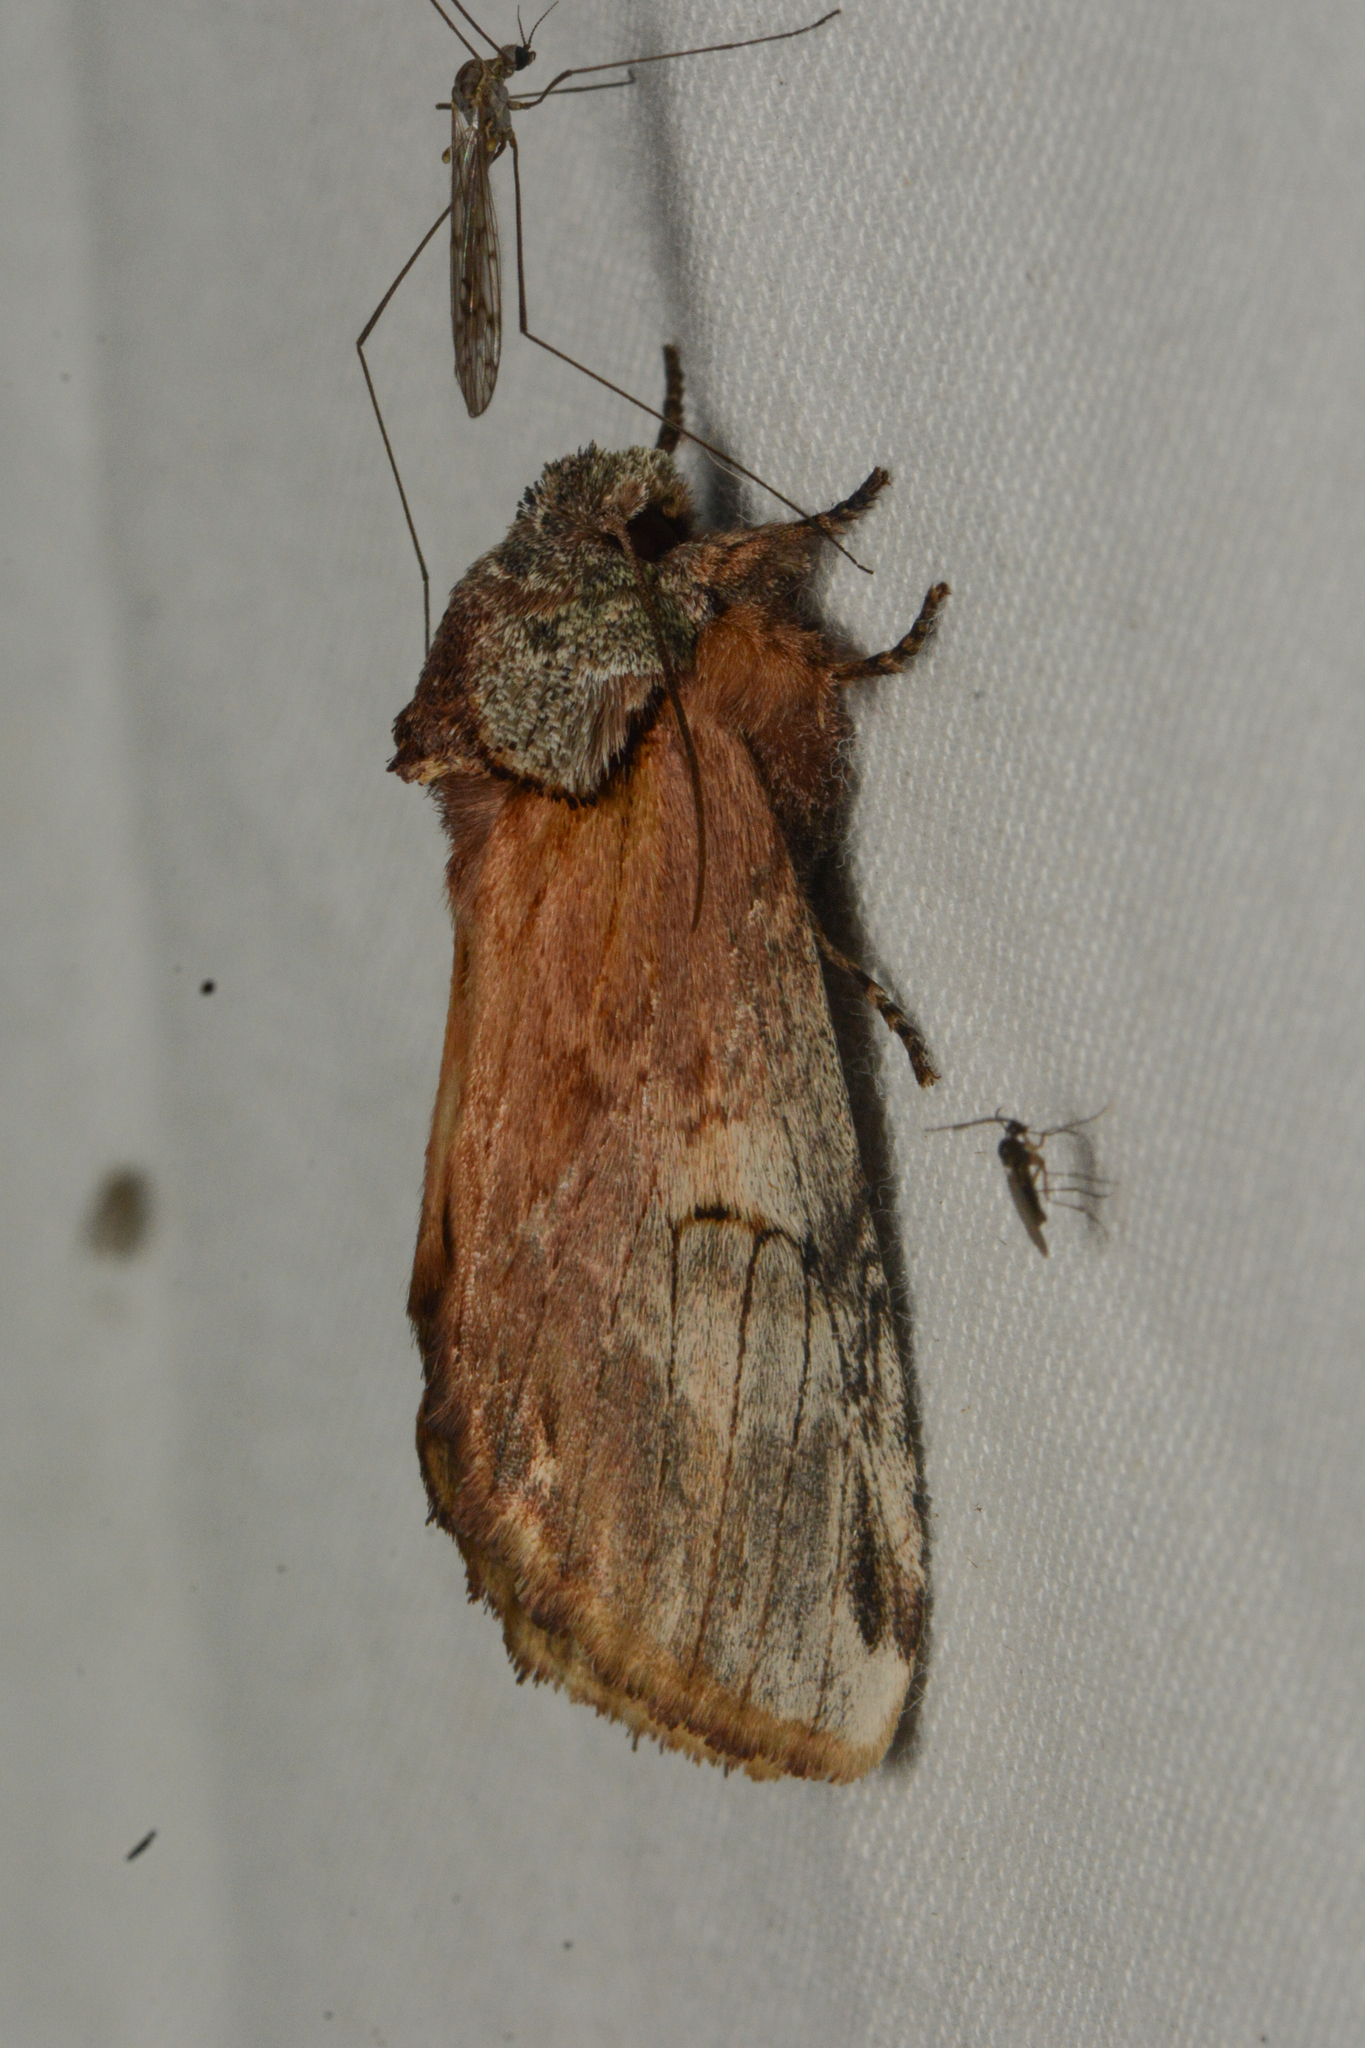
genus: Ianassa
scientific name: Ianassa
